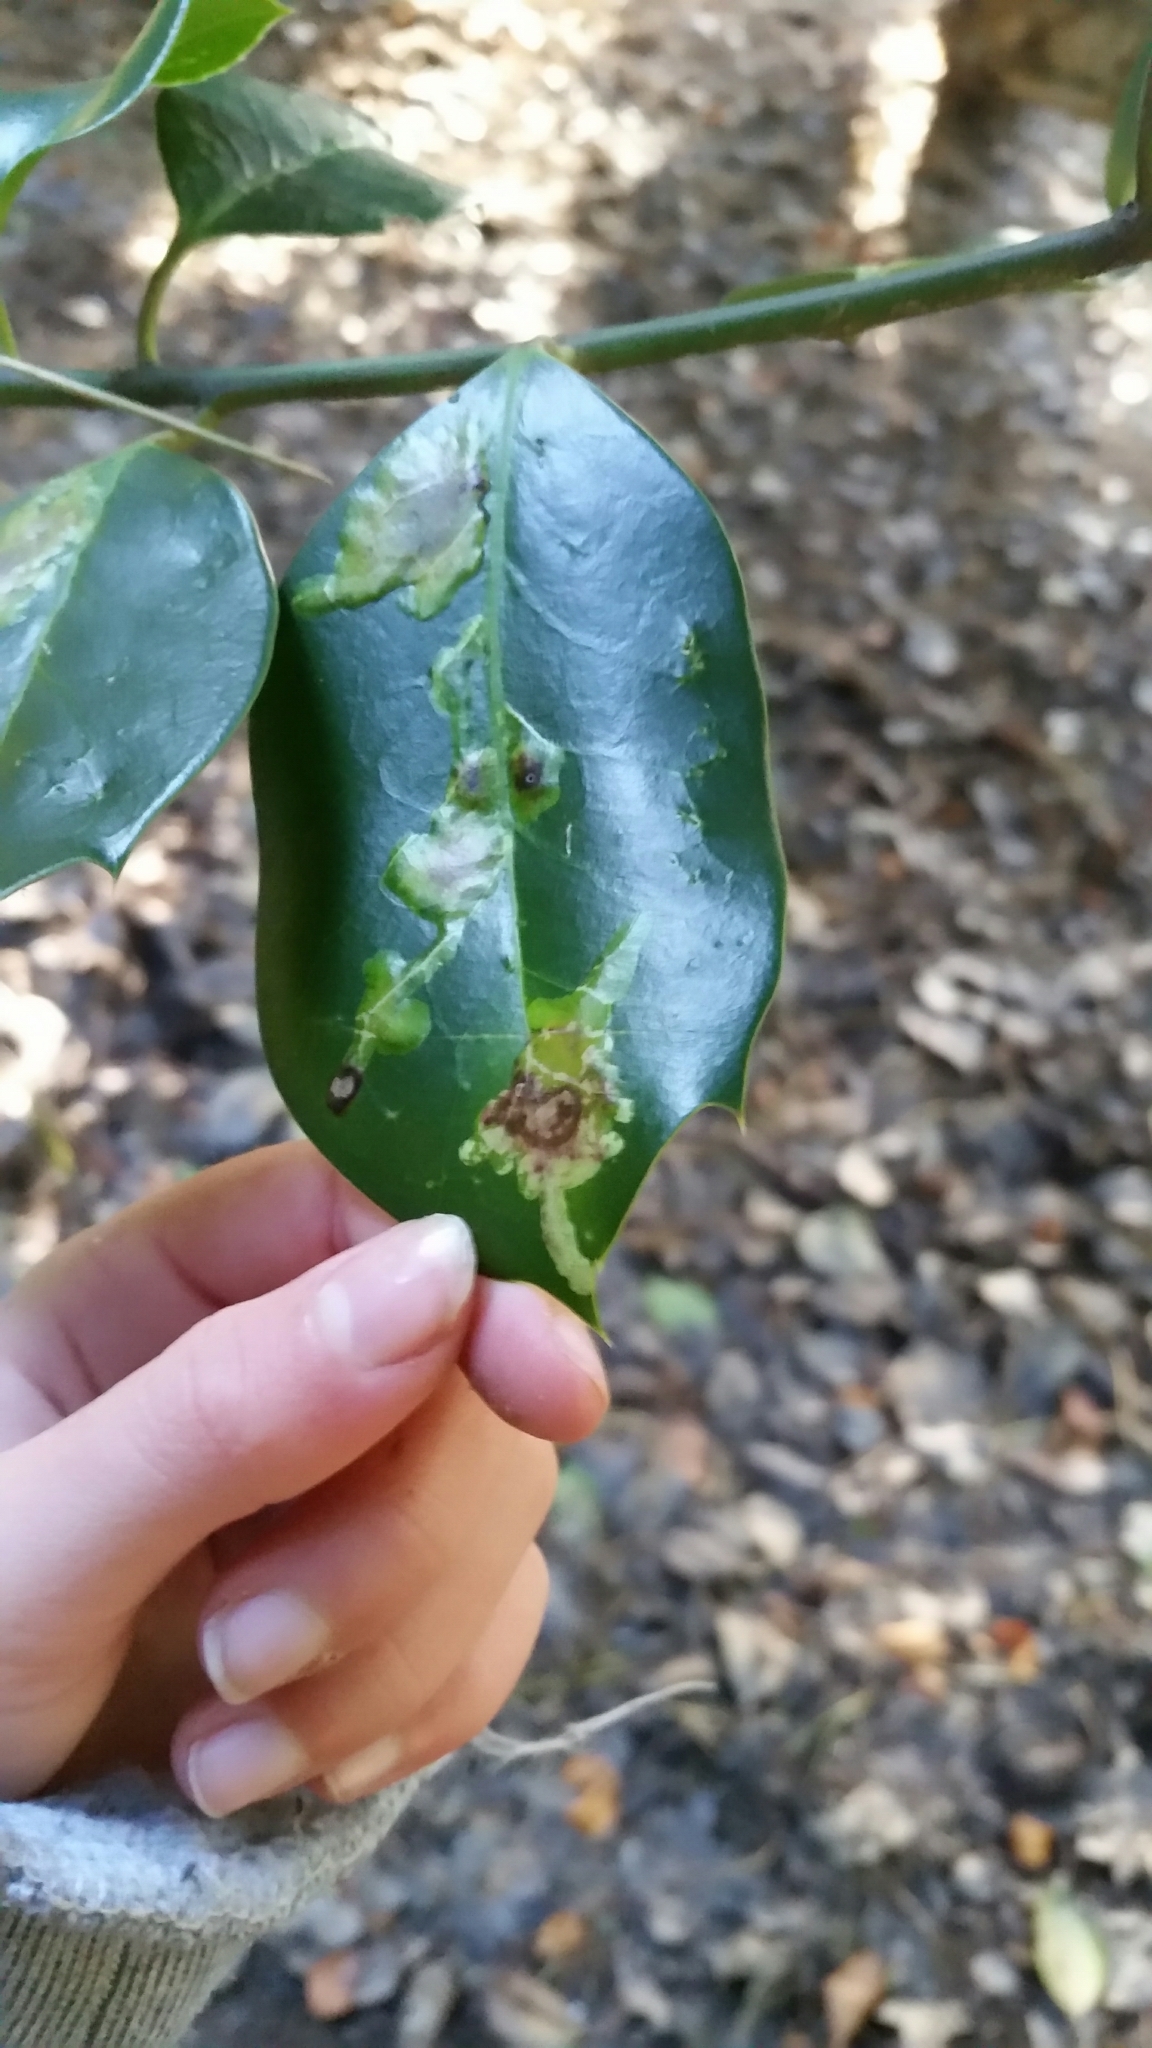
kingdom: Animalia
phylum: Arthropoda
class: Insecta
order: Diptera
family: Agromyzidae
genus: Phytomyza
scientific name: Phytomyza ilicis
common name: Holly leafminer
